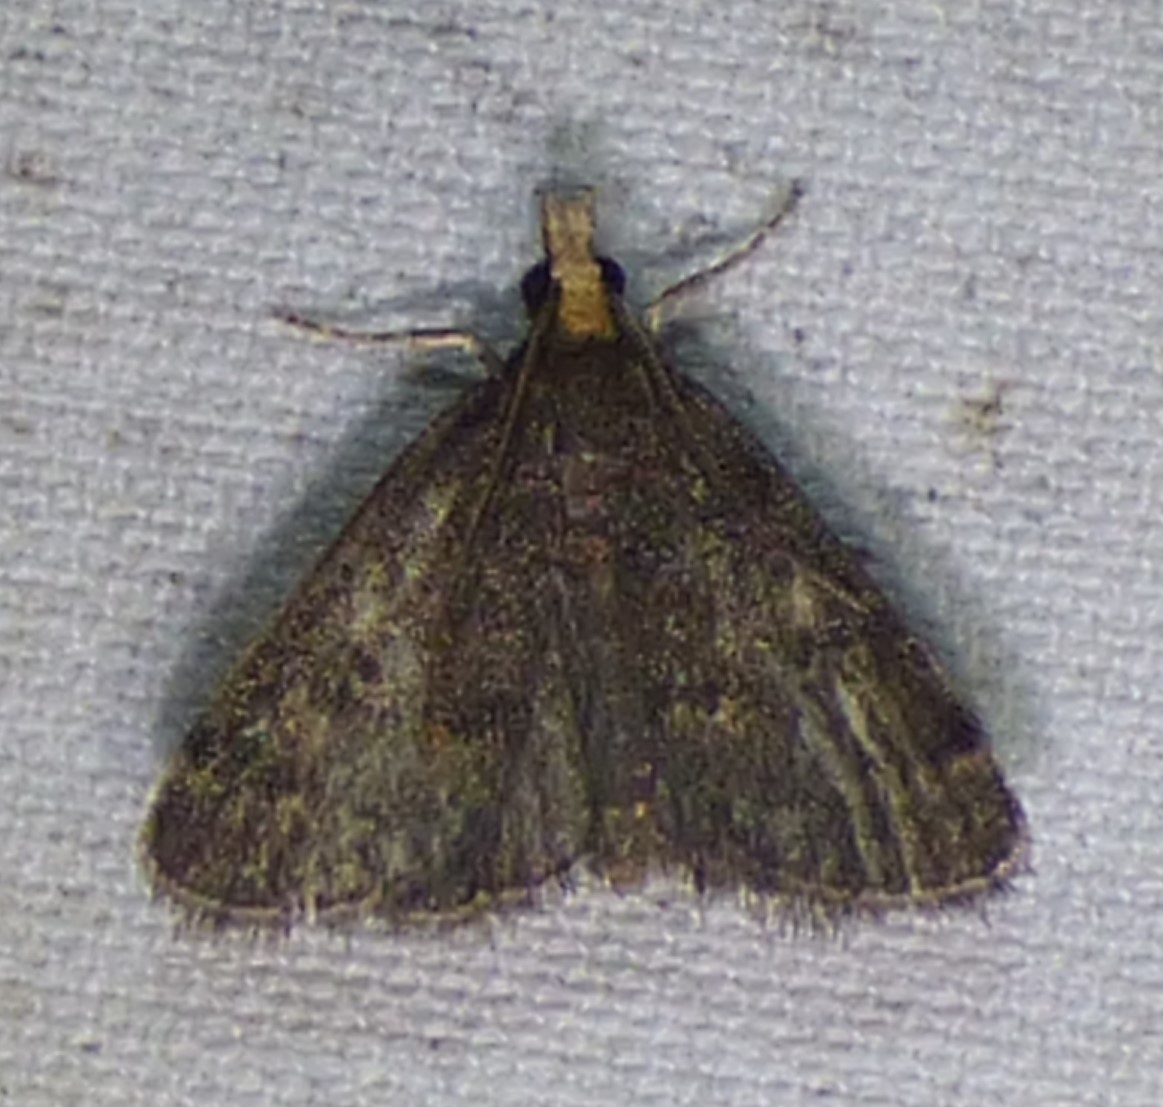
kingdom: Animalia
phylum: Arthropoda
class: Insecta
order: Lepidoptera
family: Crambidae
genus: Pyrausta
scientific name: Pyrausta merrickalis
